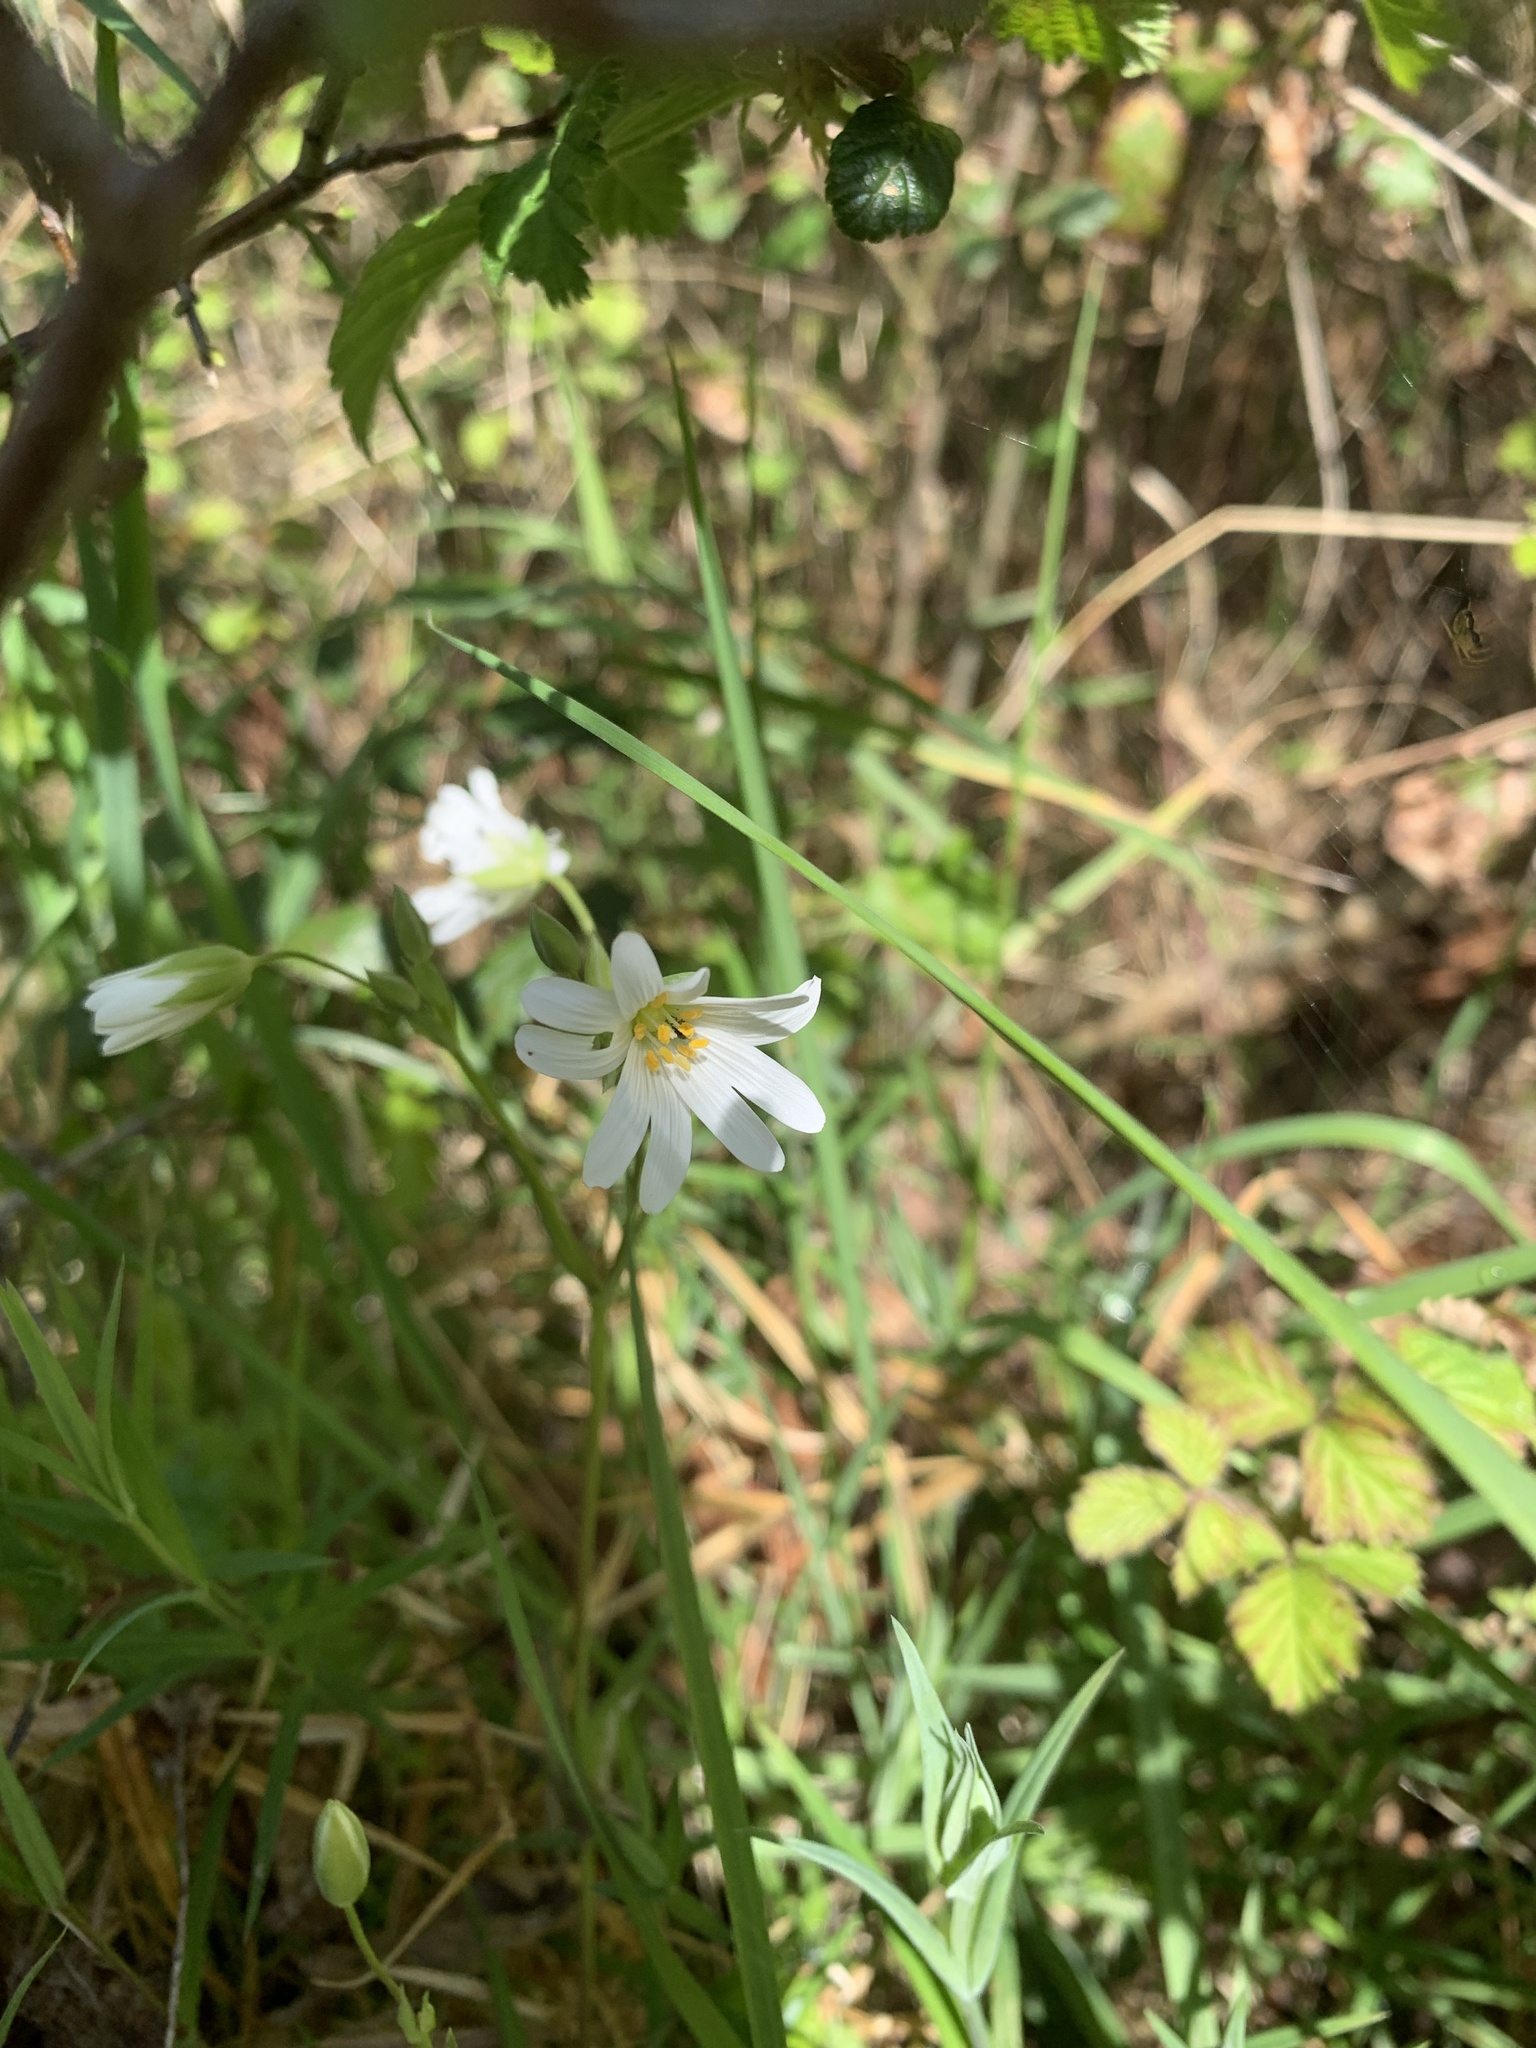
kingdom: Plantae
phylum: Tracheophyta
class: Magnoliopsida
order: Caryophyllales
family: Caryophyllaceae
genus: Rabelera
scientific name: Rabelera holostea
